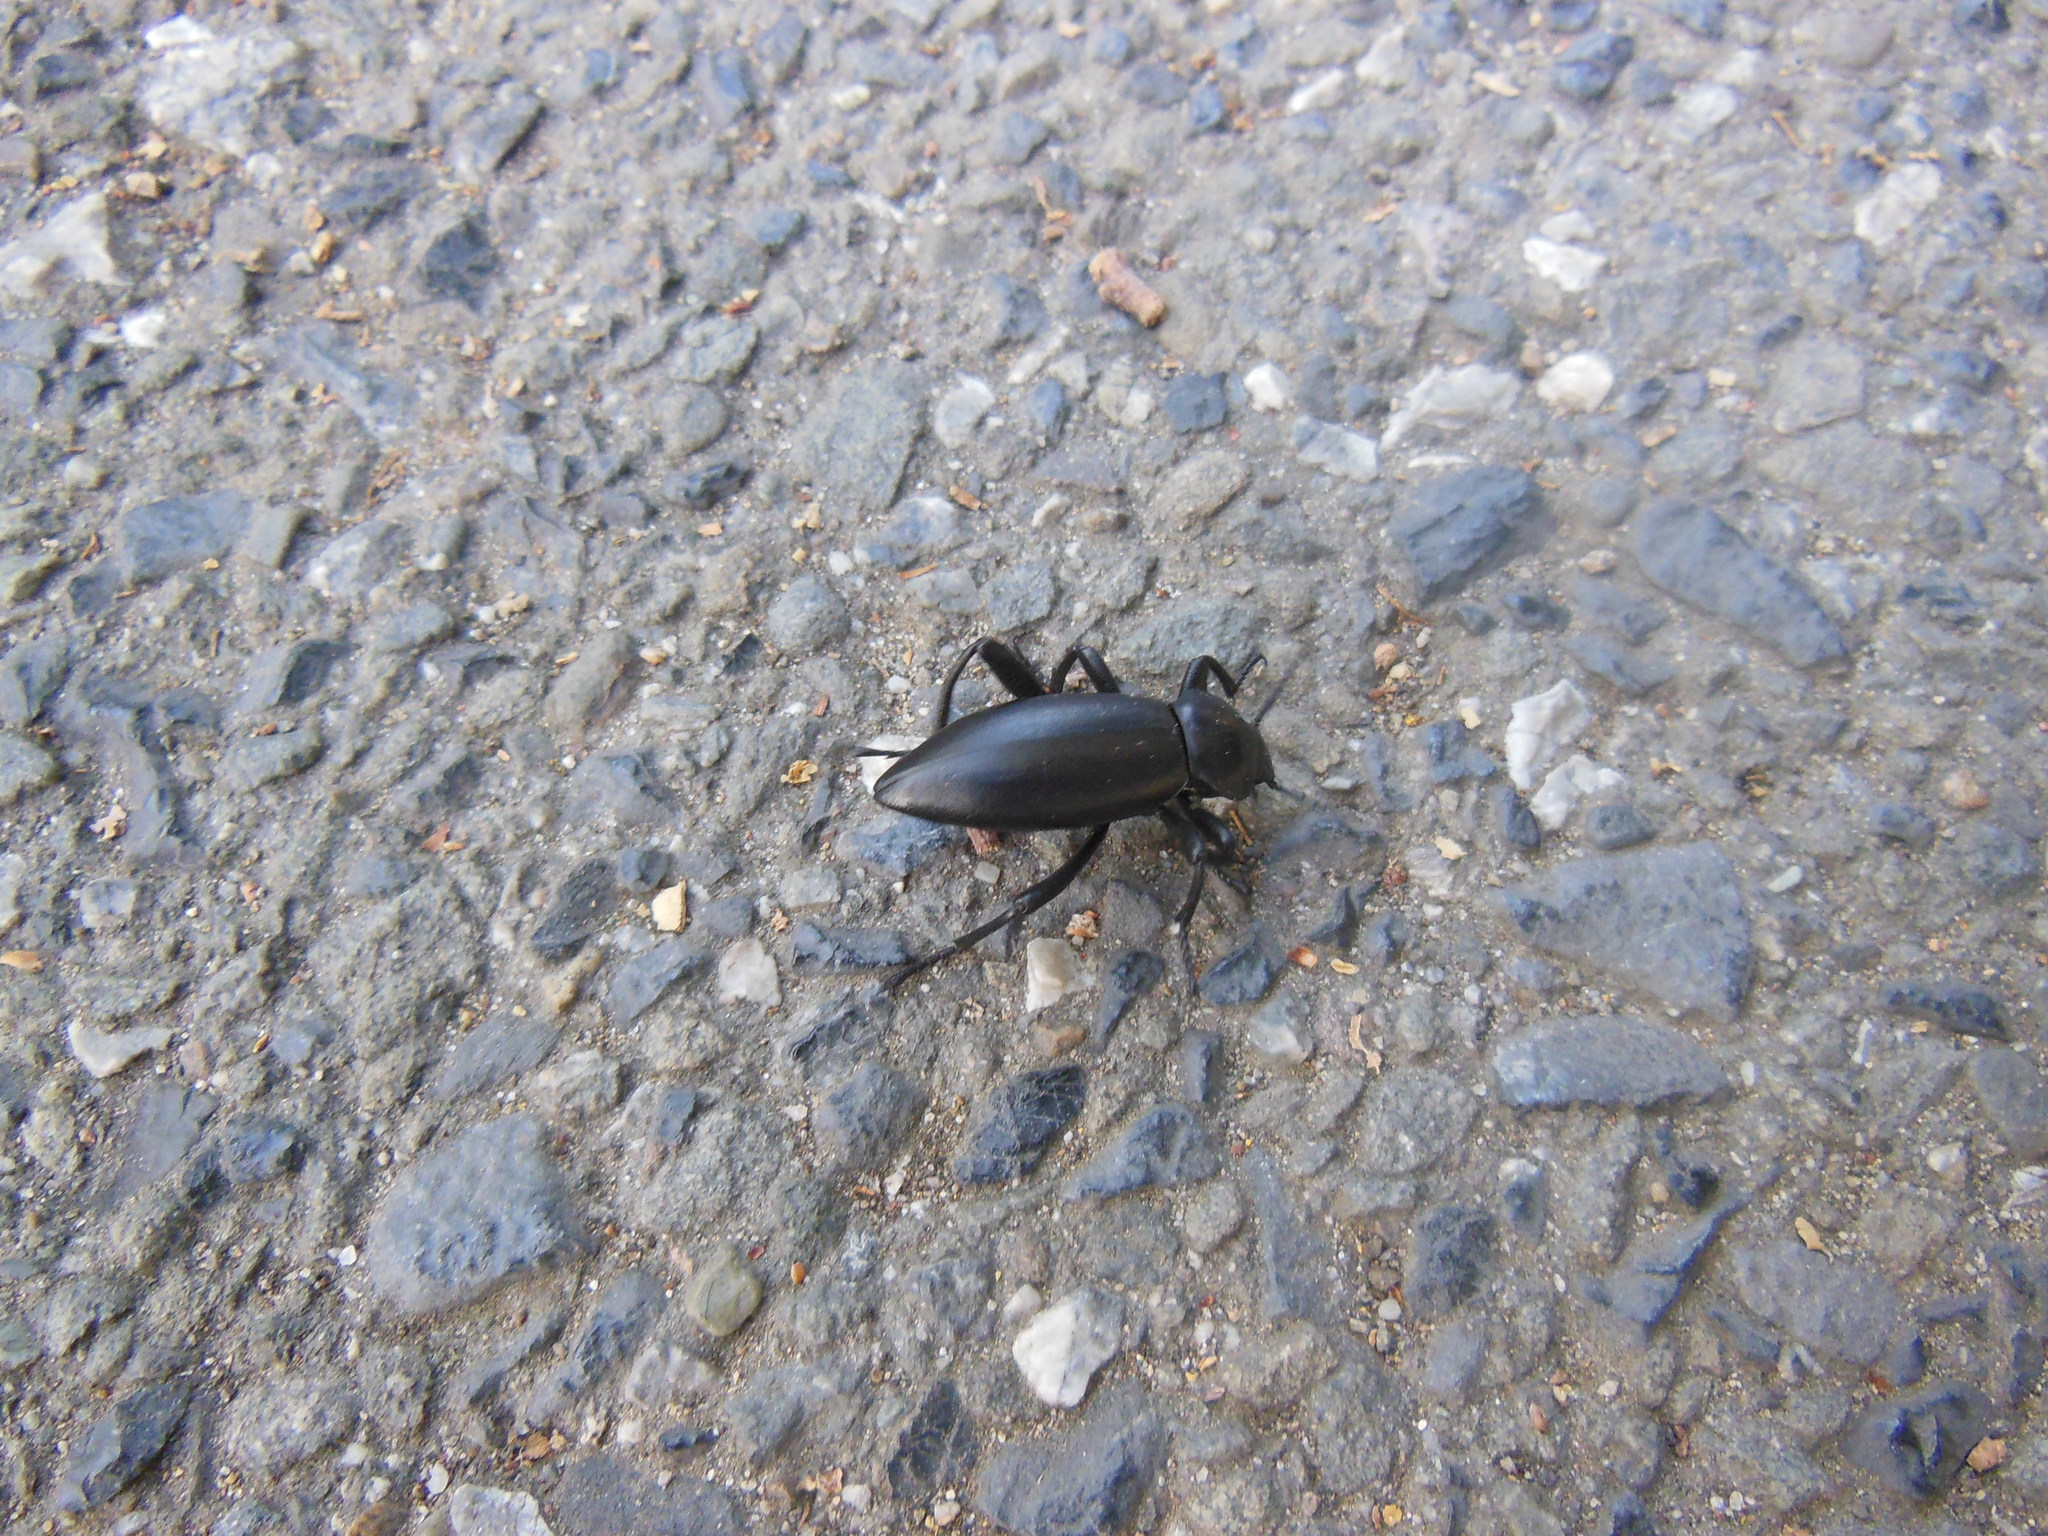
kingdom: Animalia
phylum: Arthropoda
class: Insecta
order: Coleoptera
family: Tenebrionidae
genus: Eleodes
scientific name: Eleodes dentipes
